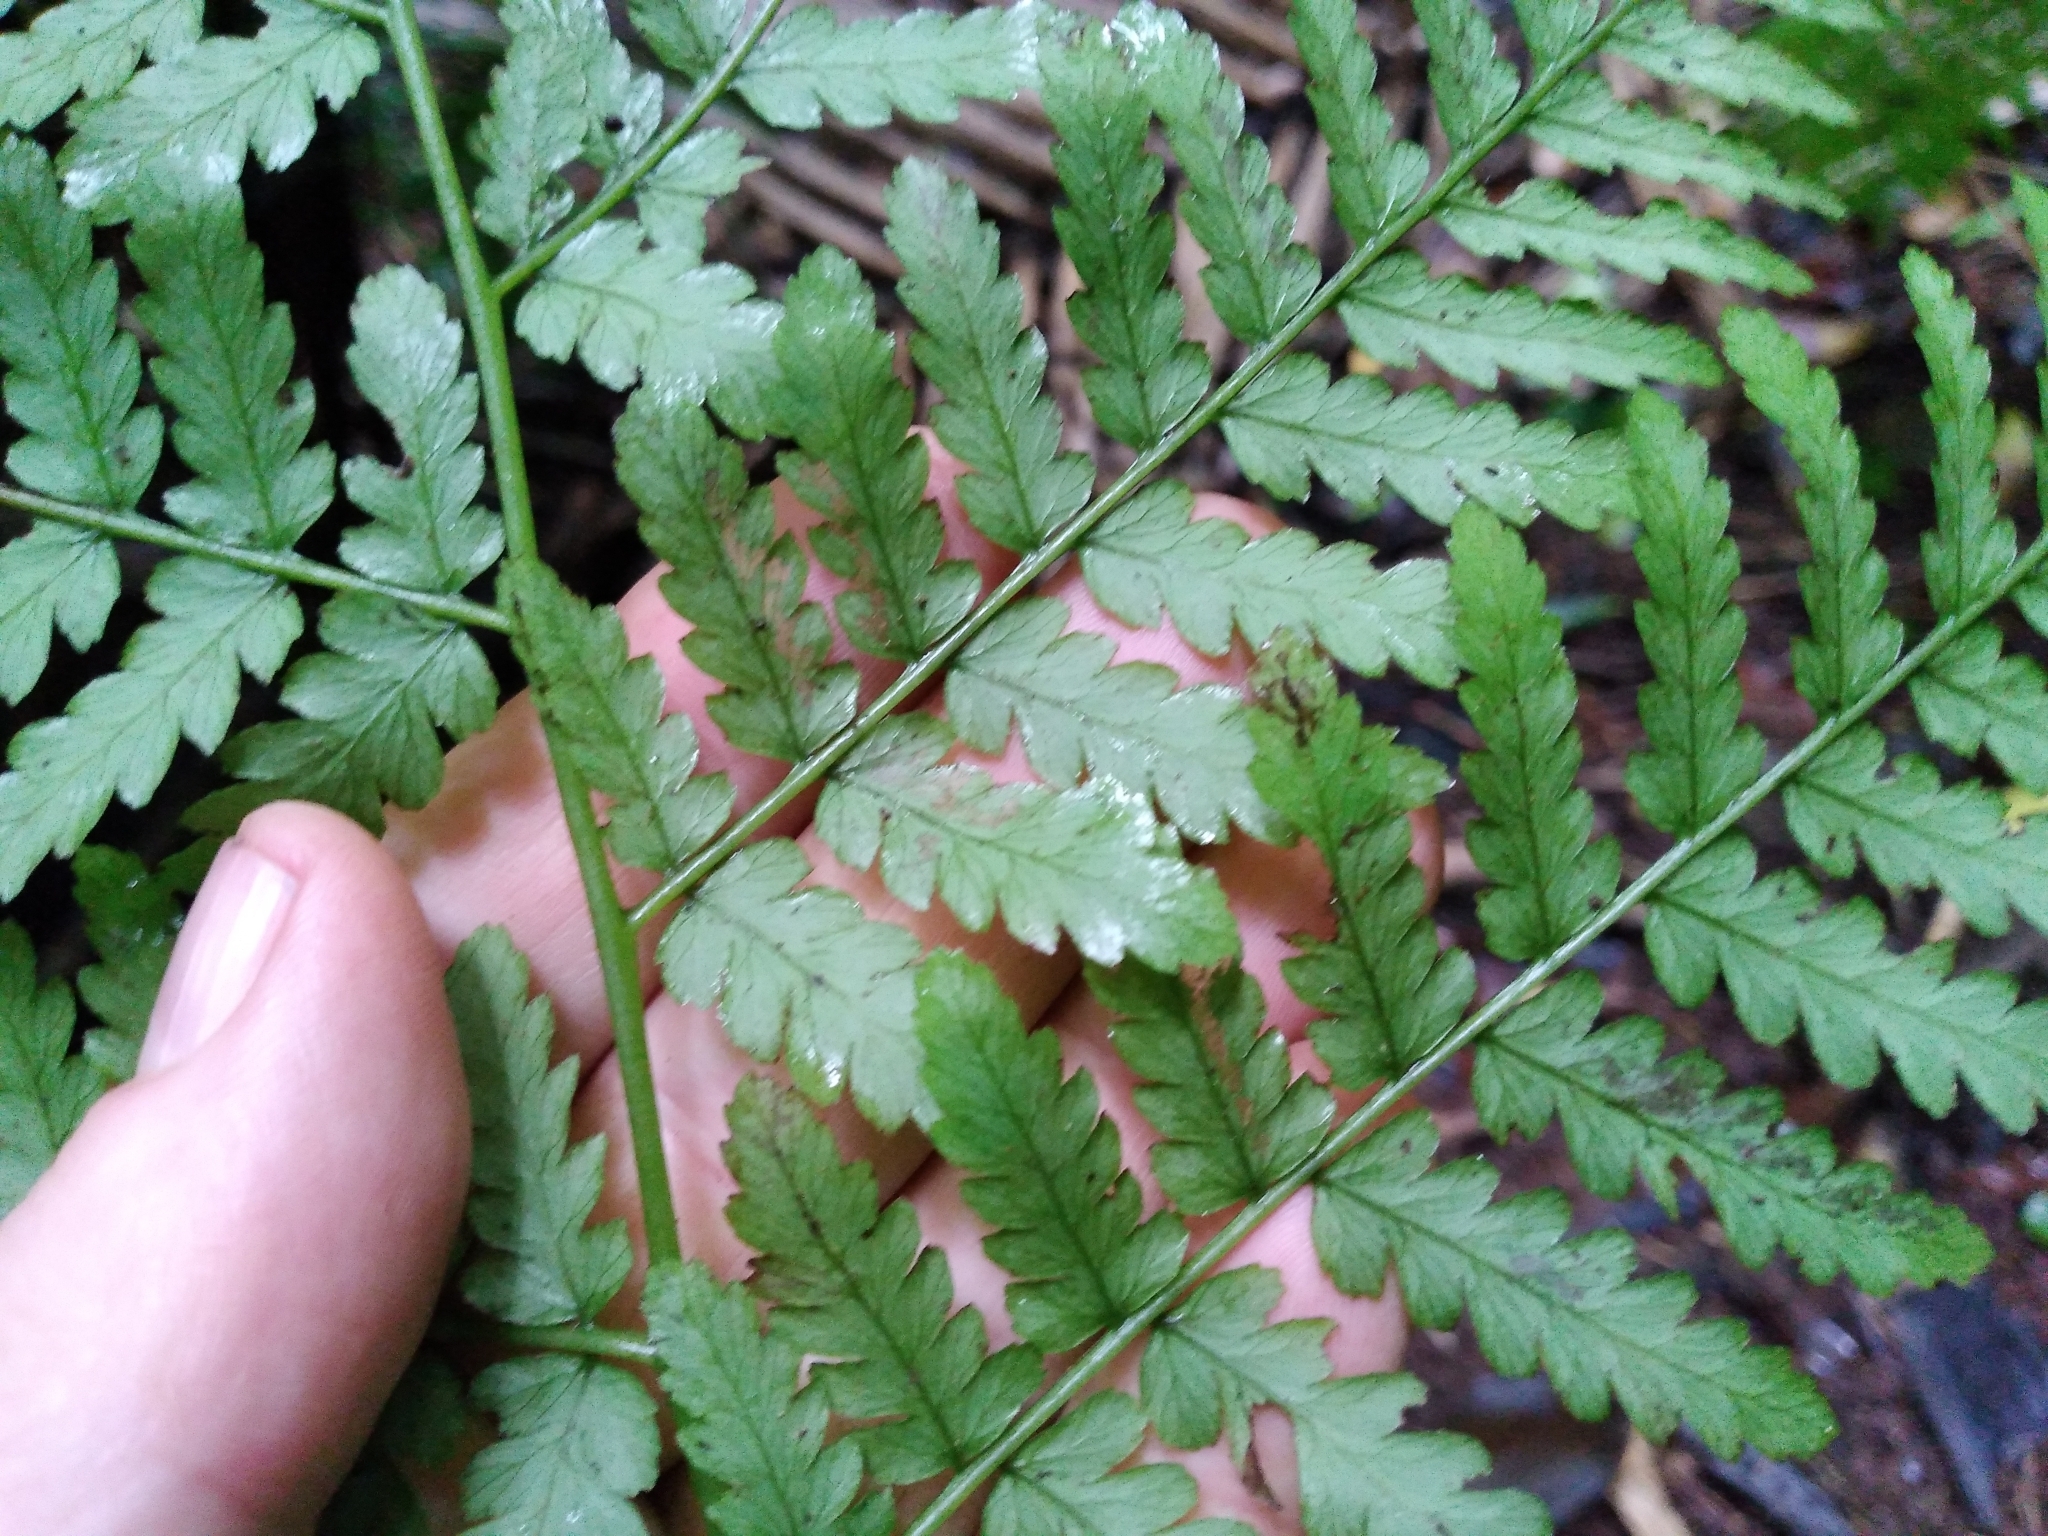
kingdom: Plantae
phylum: Tracheophyta
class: Polypodiopsida
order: Polypodiales
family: Athyriaceae
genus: Diplazium
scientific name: Diplazium assimile
